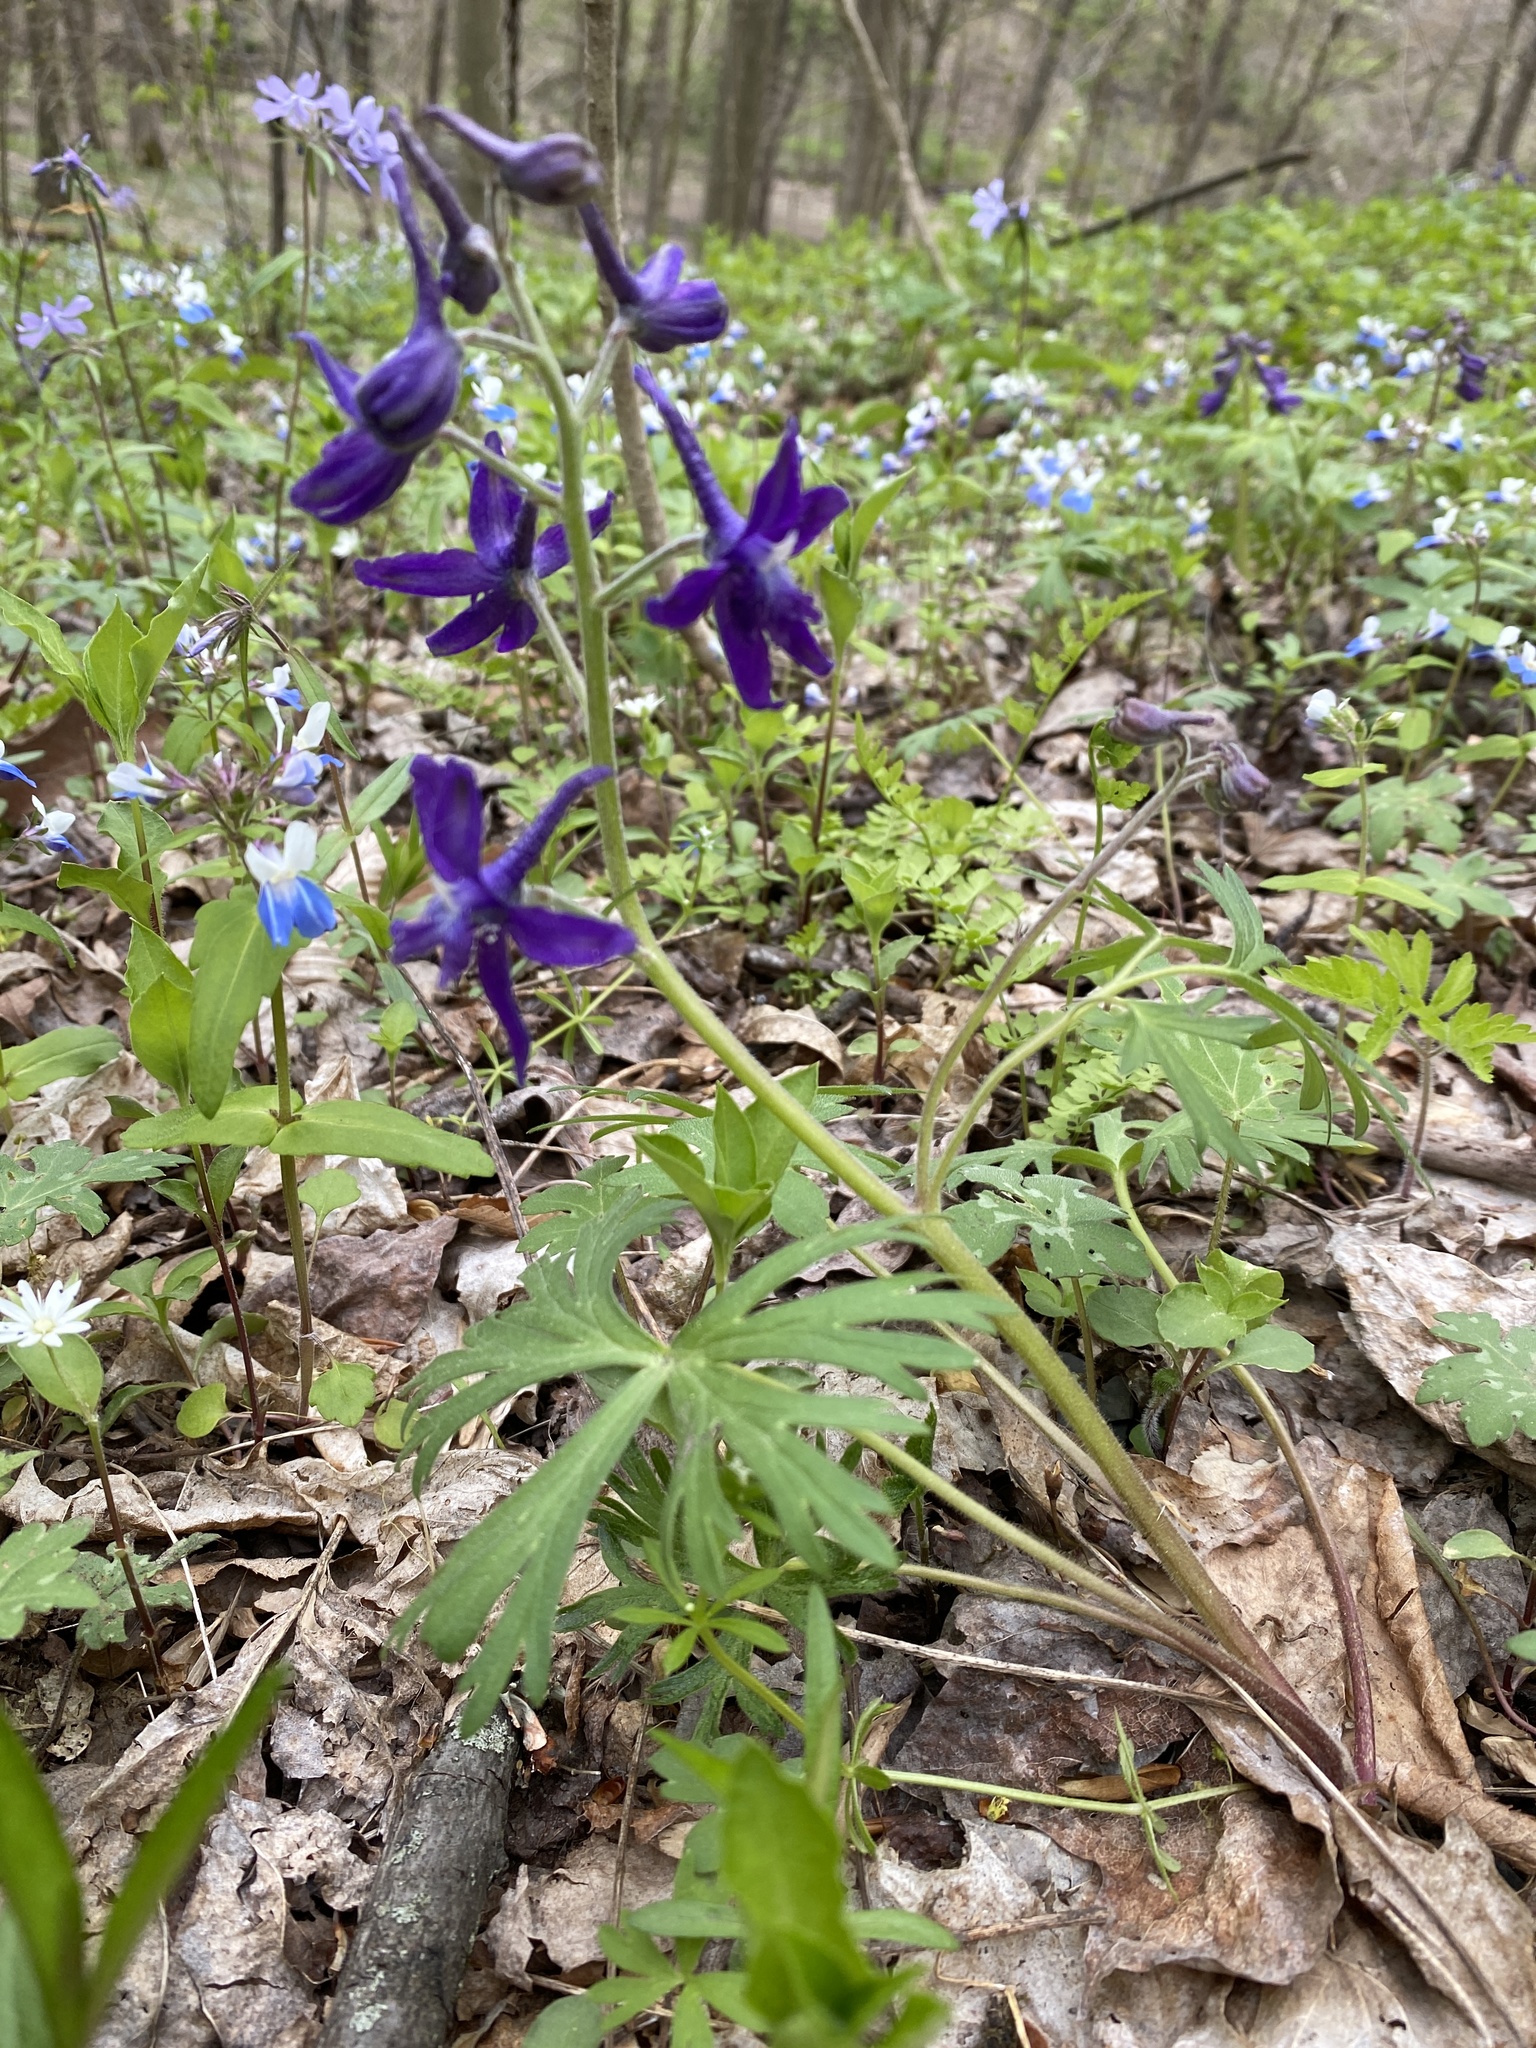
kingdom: Plantae
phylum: Tracheophyta
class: Magnoliopsida
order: Ranunculales
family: Ranunculaceae
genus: Delphinium
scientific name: Delphinium tricorne
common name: Dwarf larkspur
